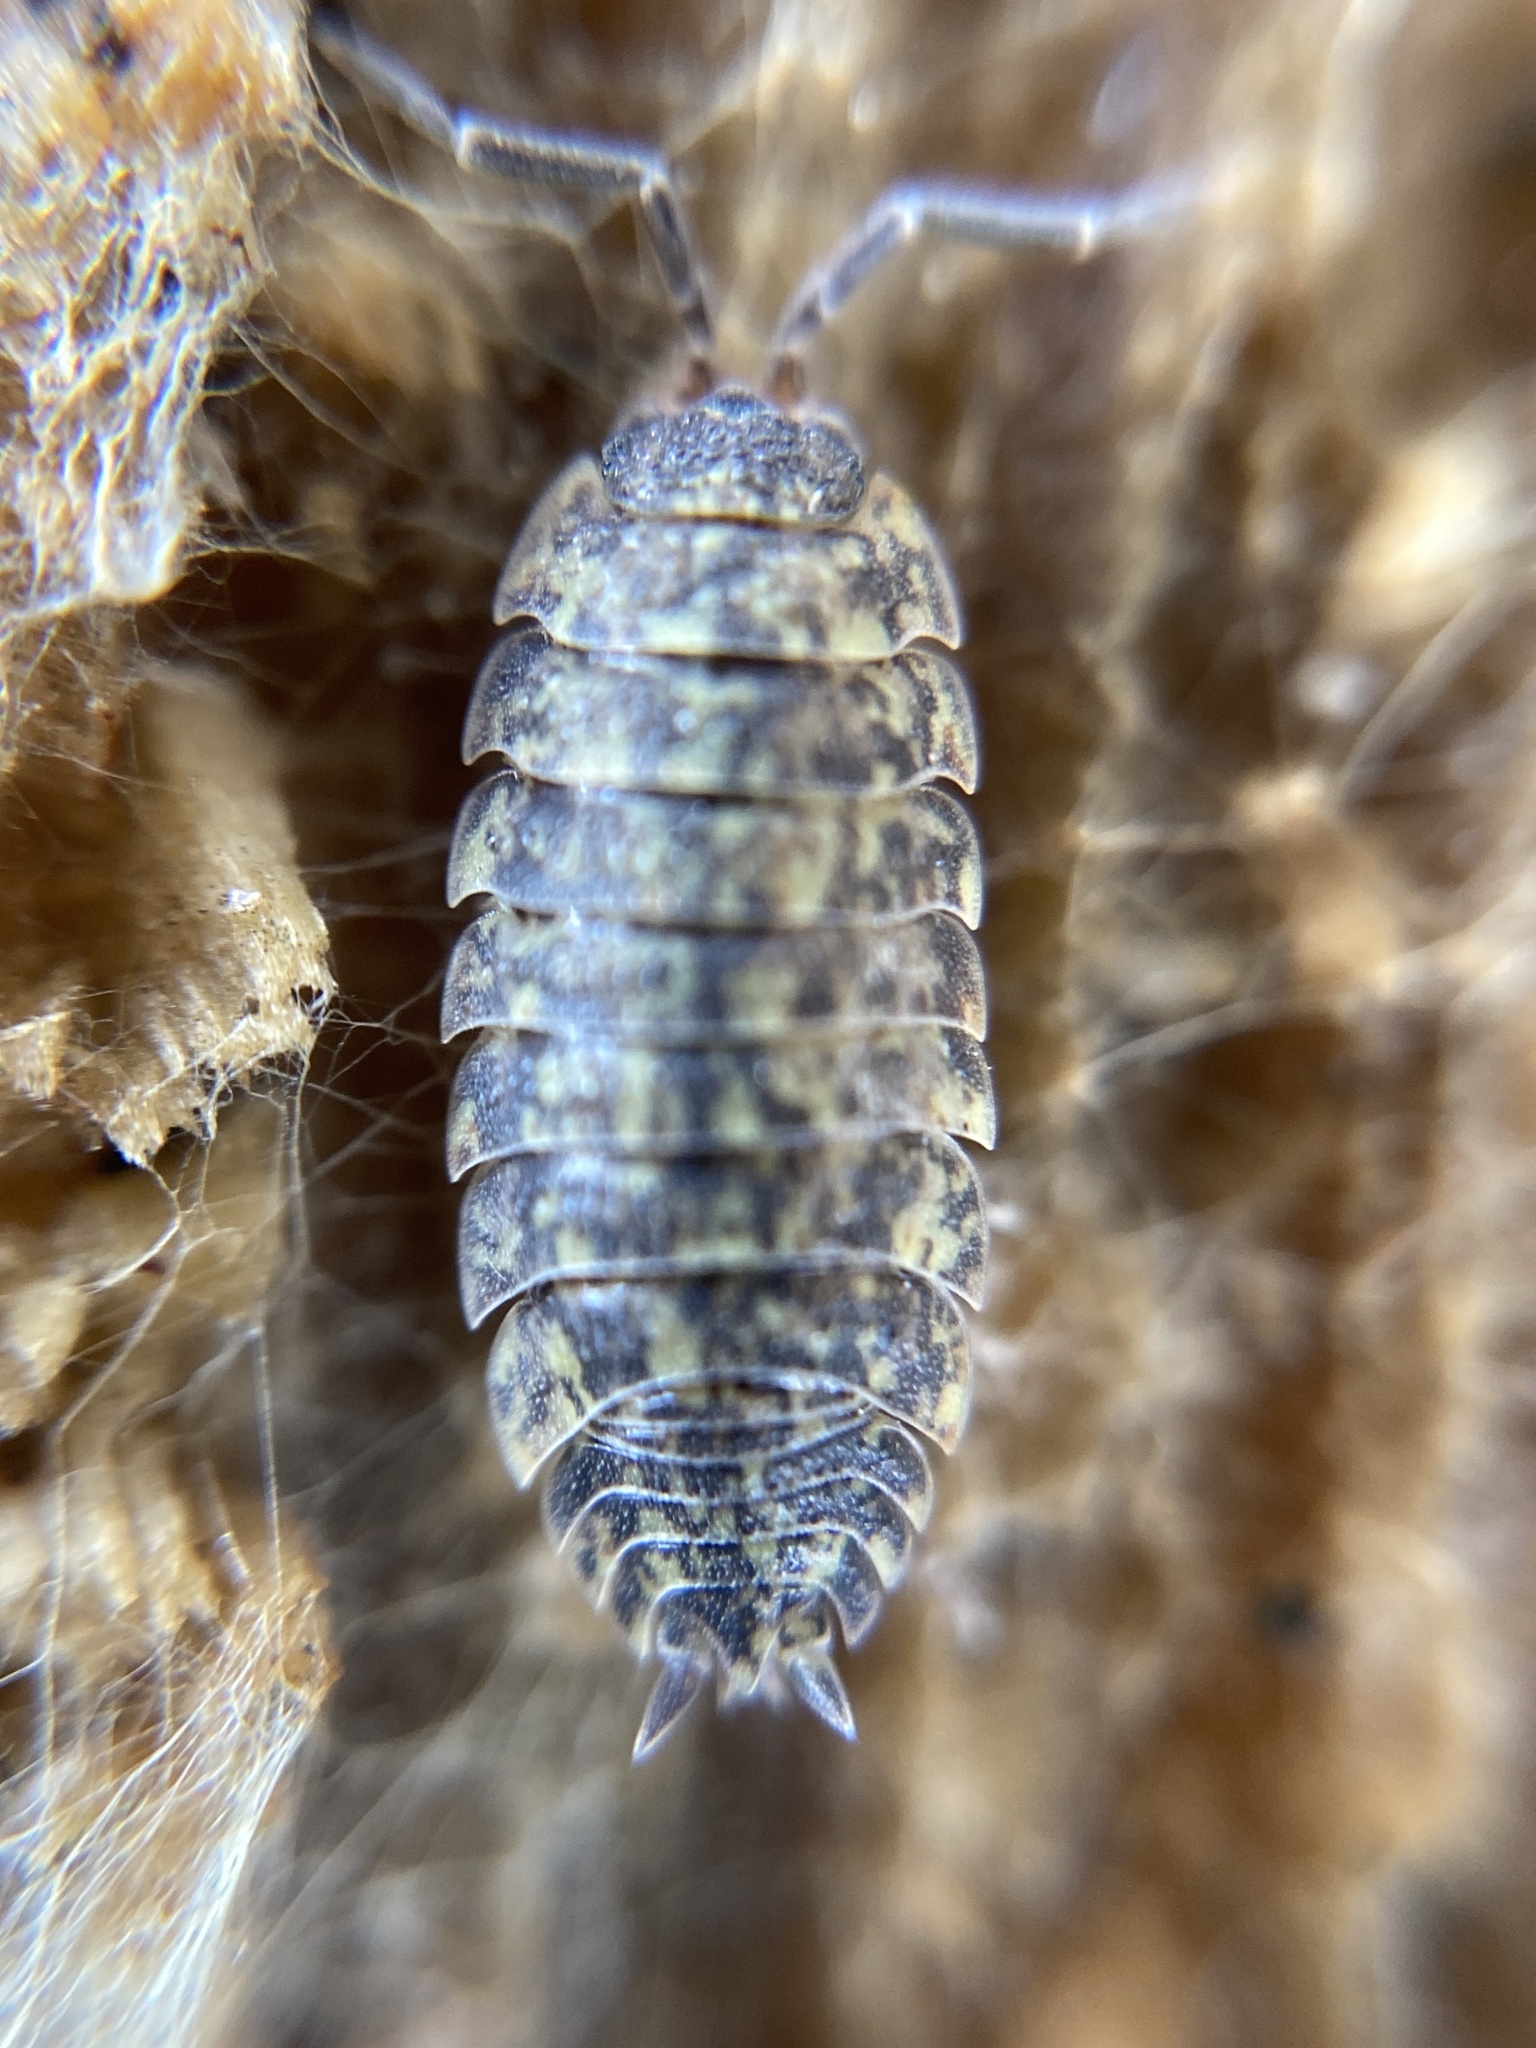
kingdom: Animalia
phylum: Arthropoda
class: Malacostraca
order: Isopoda
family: Porcellionidae
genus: Porcellio
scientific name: Porcellio scaber
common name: Common rough woodlouse
